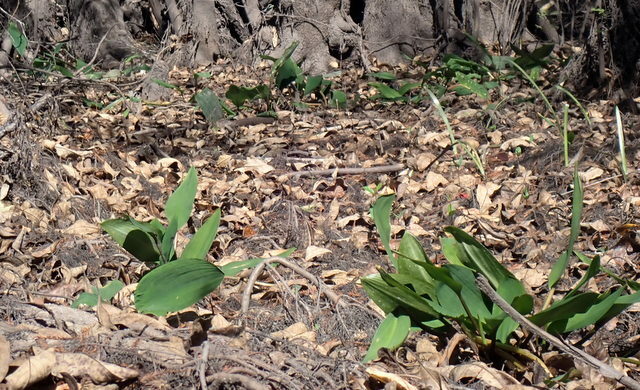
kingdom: Plantae
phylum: Tracheophyta
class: Liliopsida
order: Alismatales
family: Araceae
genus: Orontium
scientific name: Orontium aquaticum
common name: Golden-club
